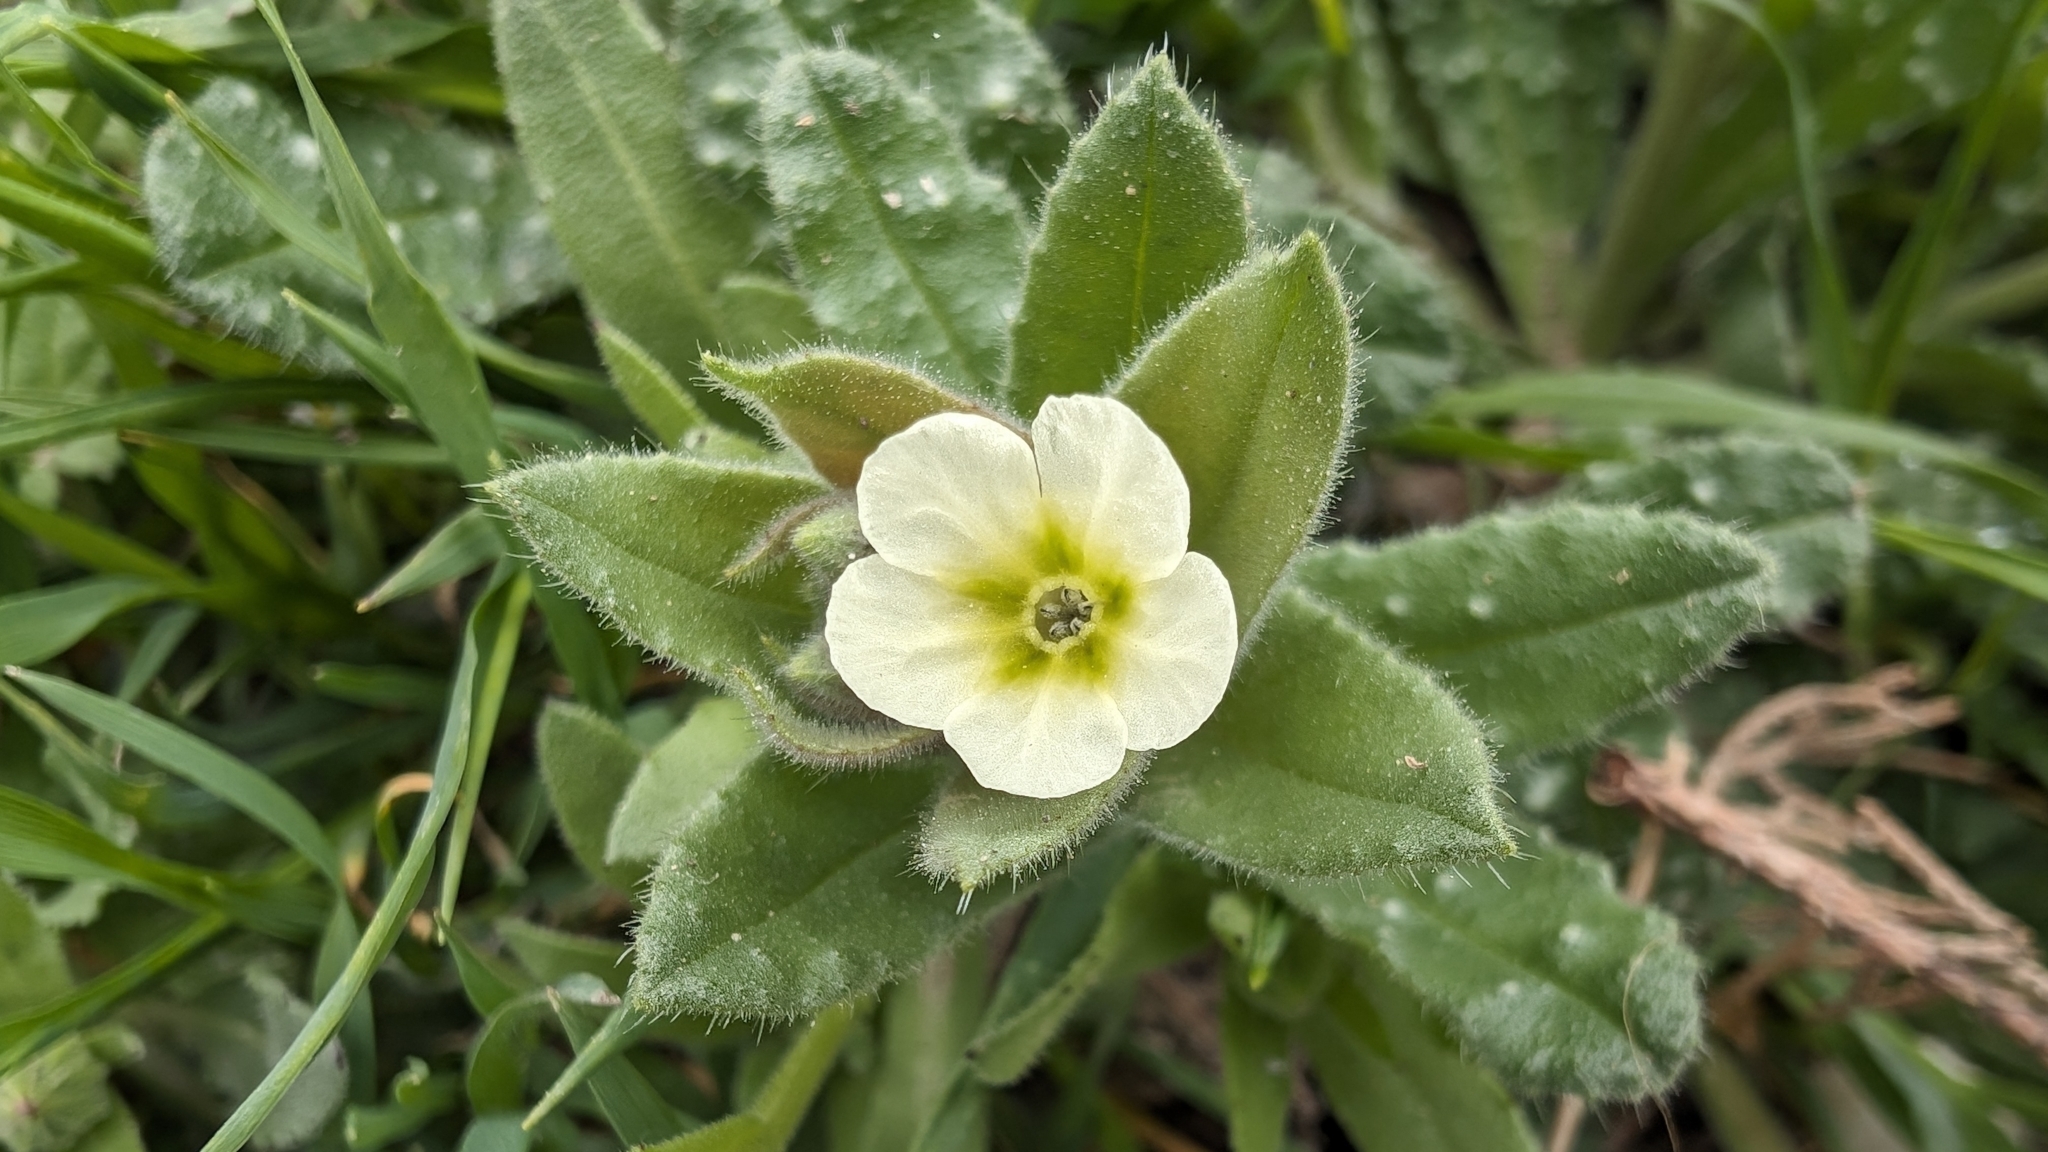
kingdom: Plantae
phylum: Tracheophyta
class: Magnoliopsida
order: Boraginales
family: Boraginaceae
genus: Nonea
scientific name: Nonea lutea
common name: Yellow nonea
